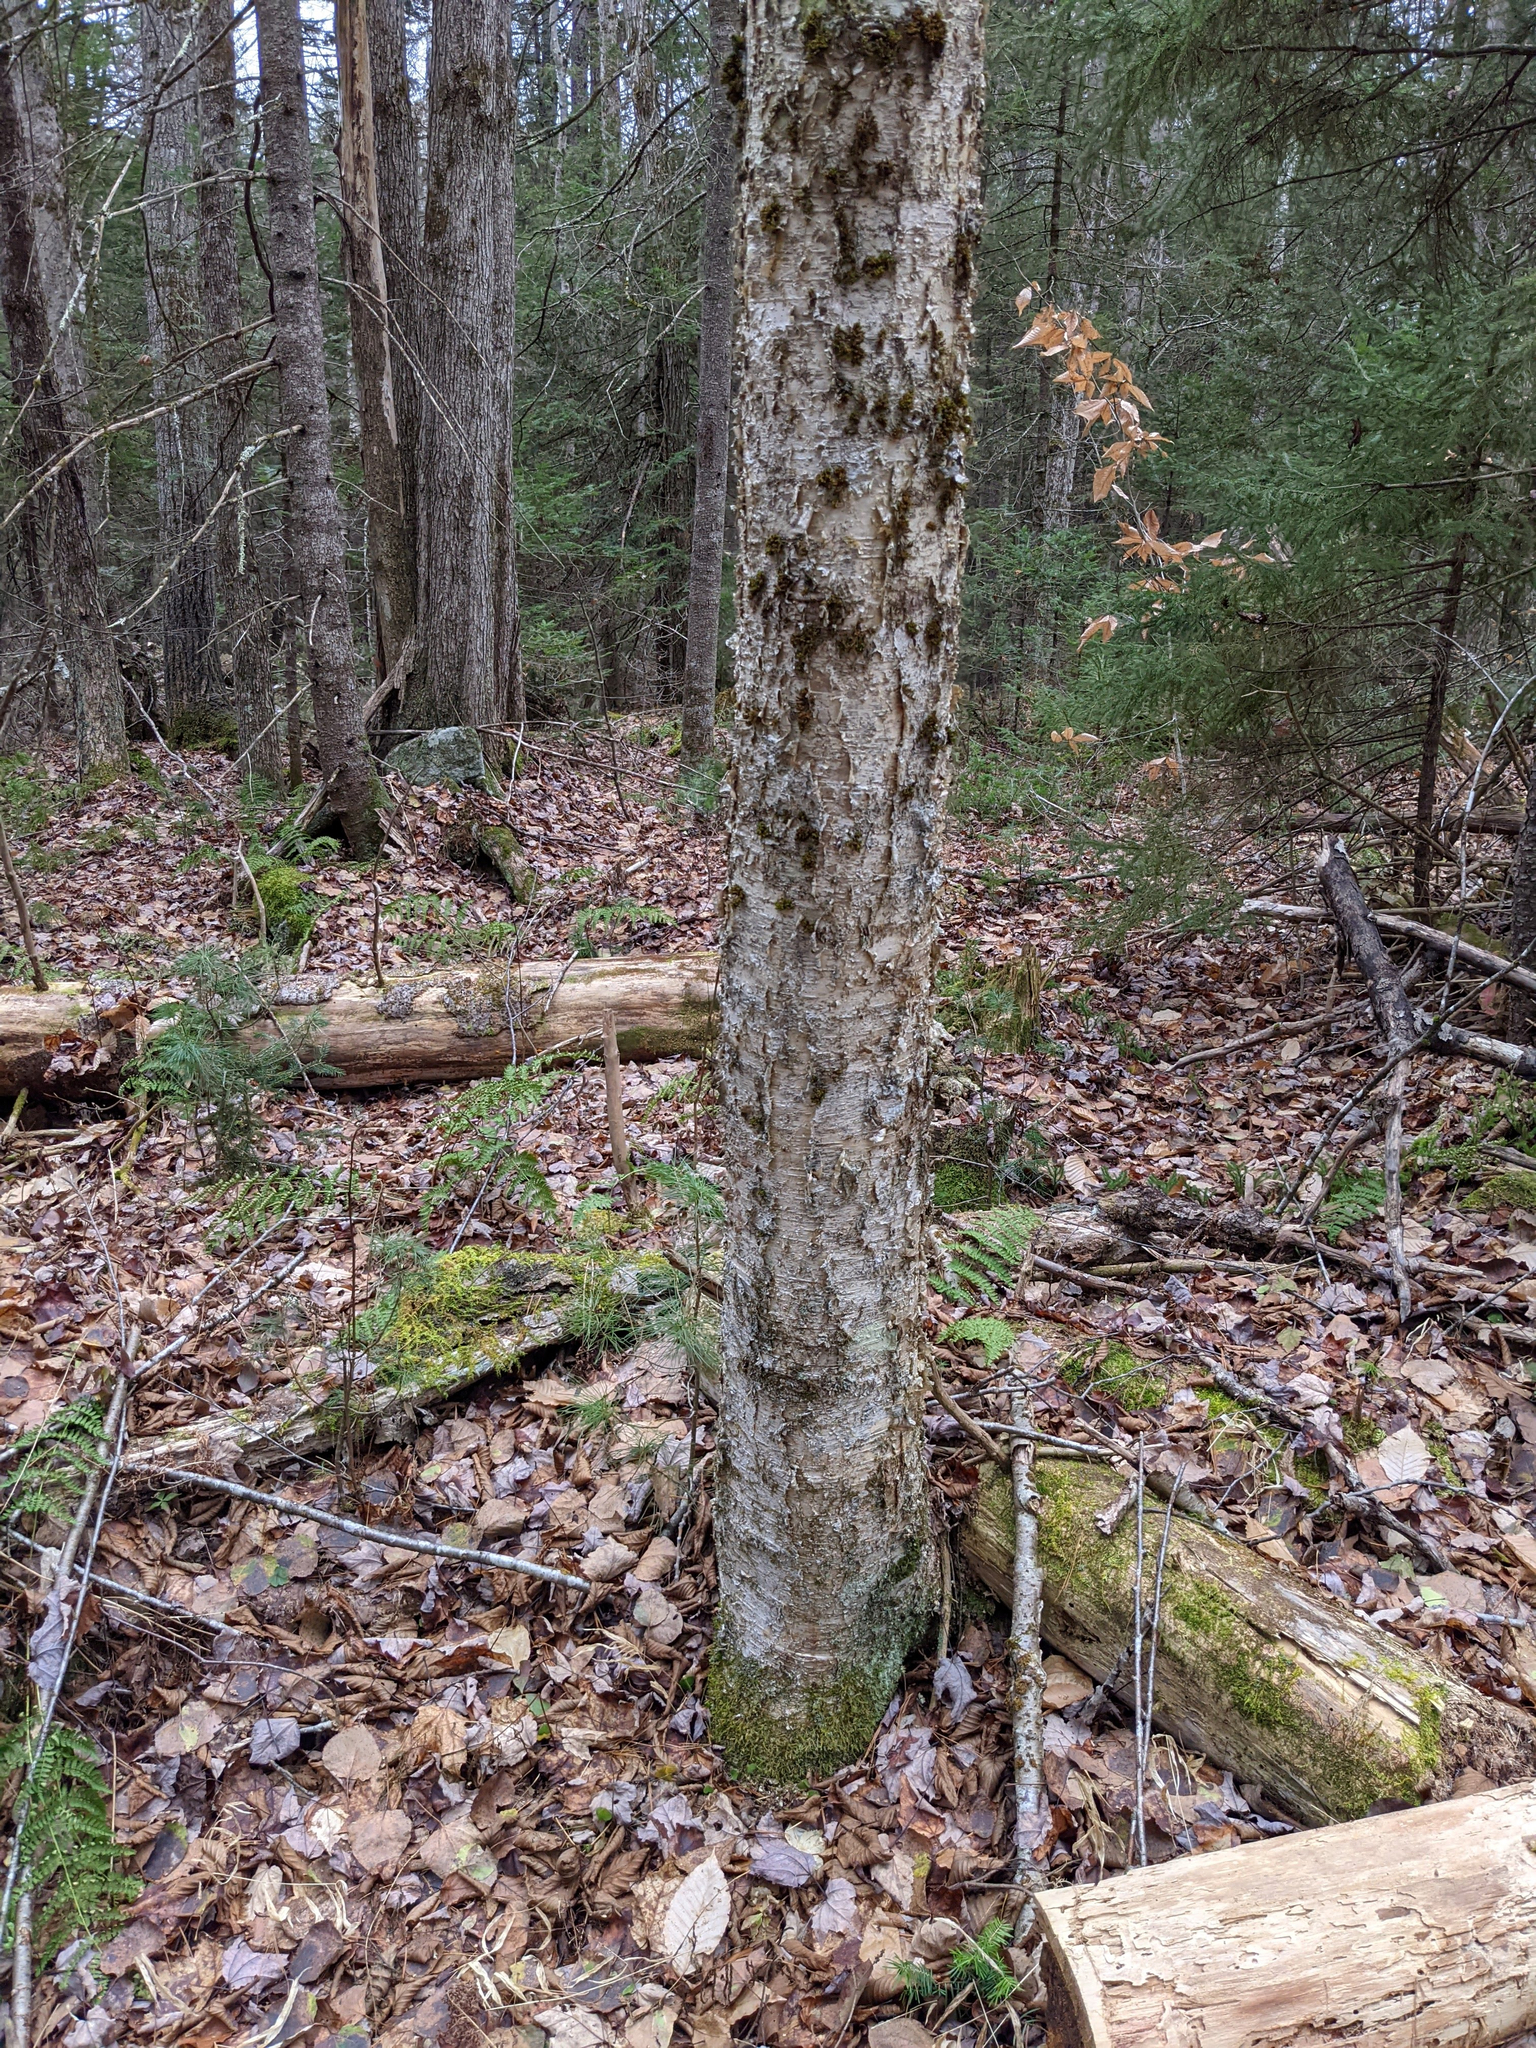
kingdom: Plantae
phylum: Tracheophyta
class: Magnoliopsida
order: Fagales
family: Betulaceae
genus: Betula
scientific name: Betula alleghaniensis
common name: Yellow birch
